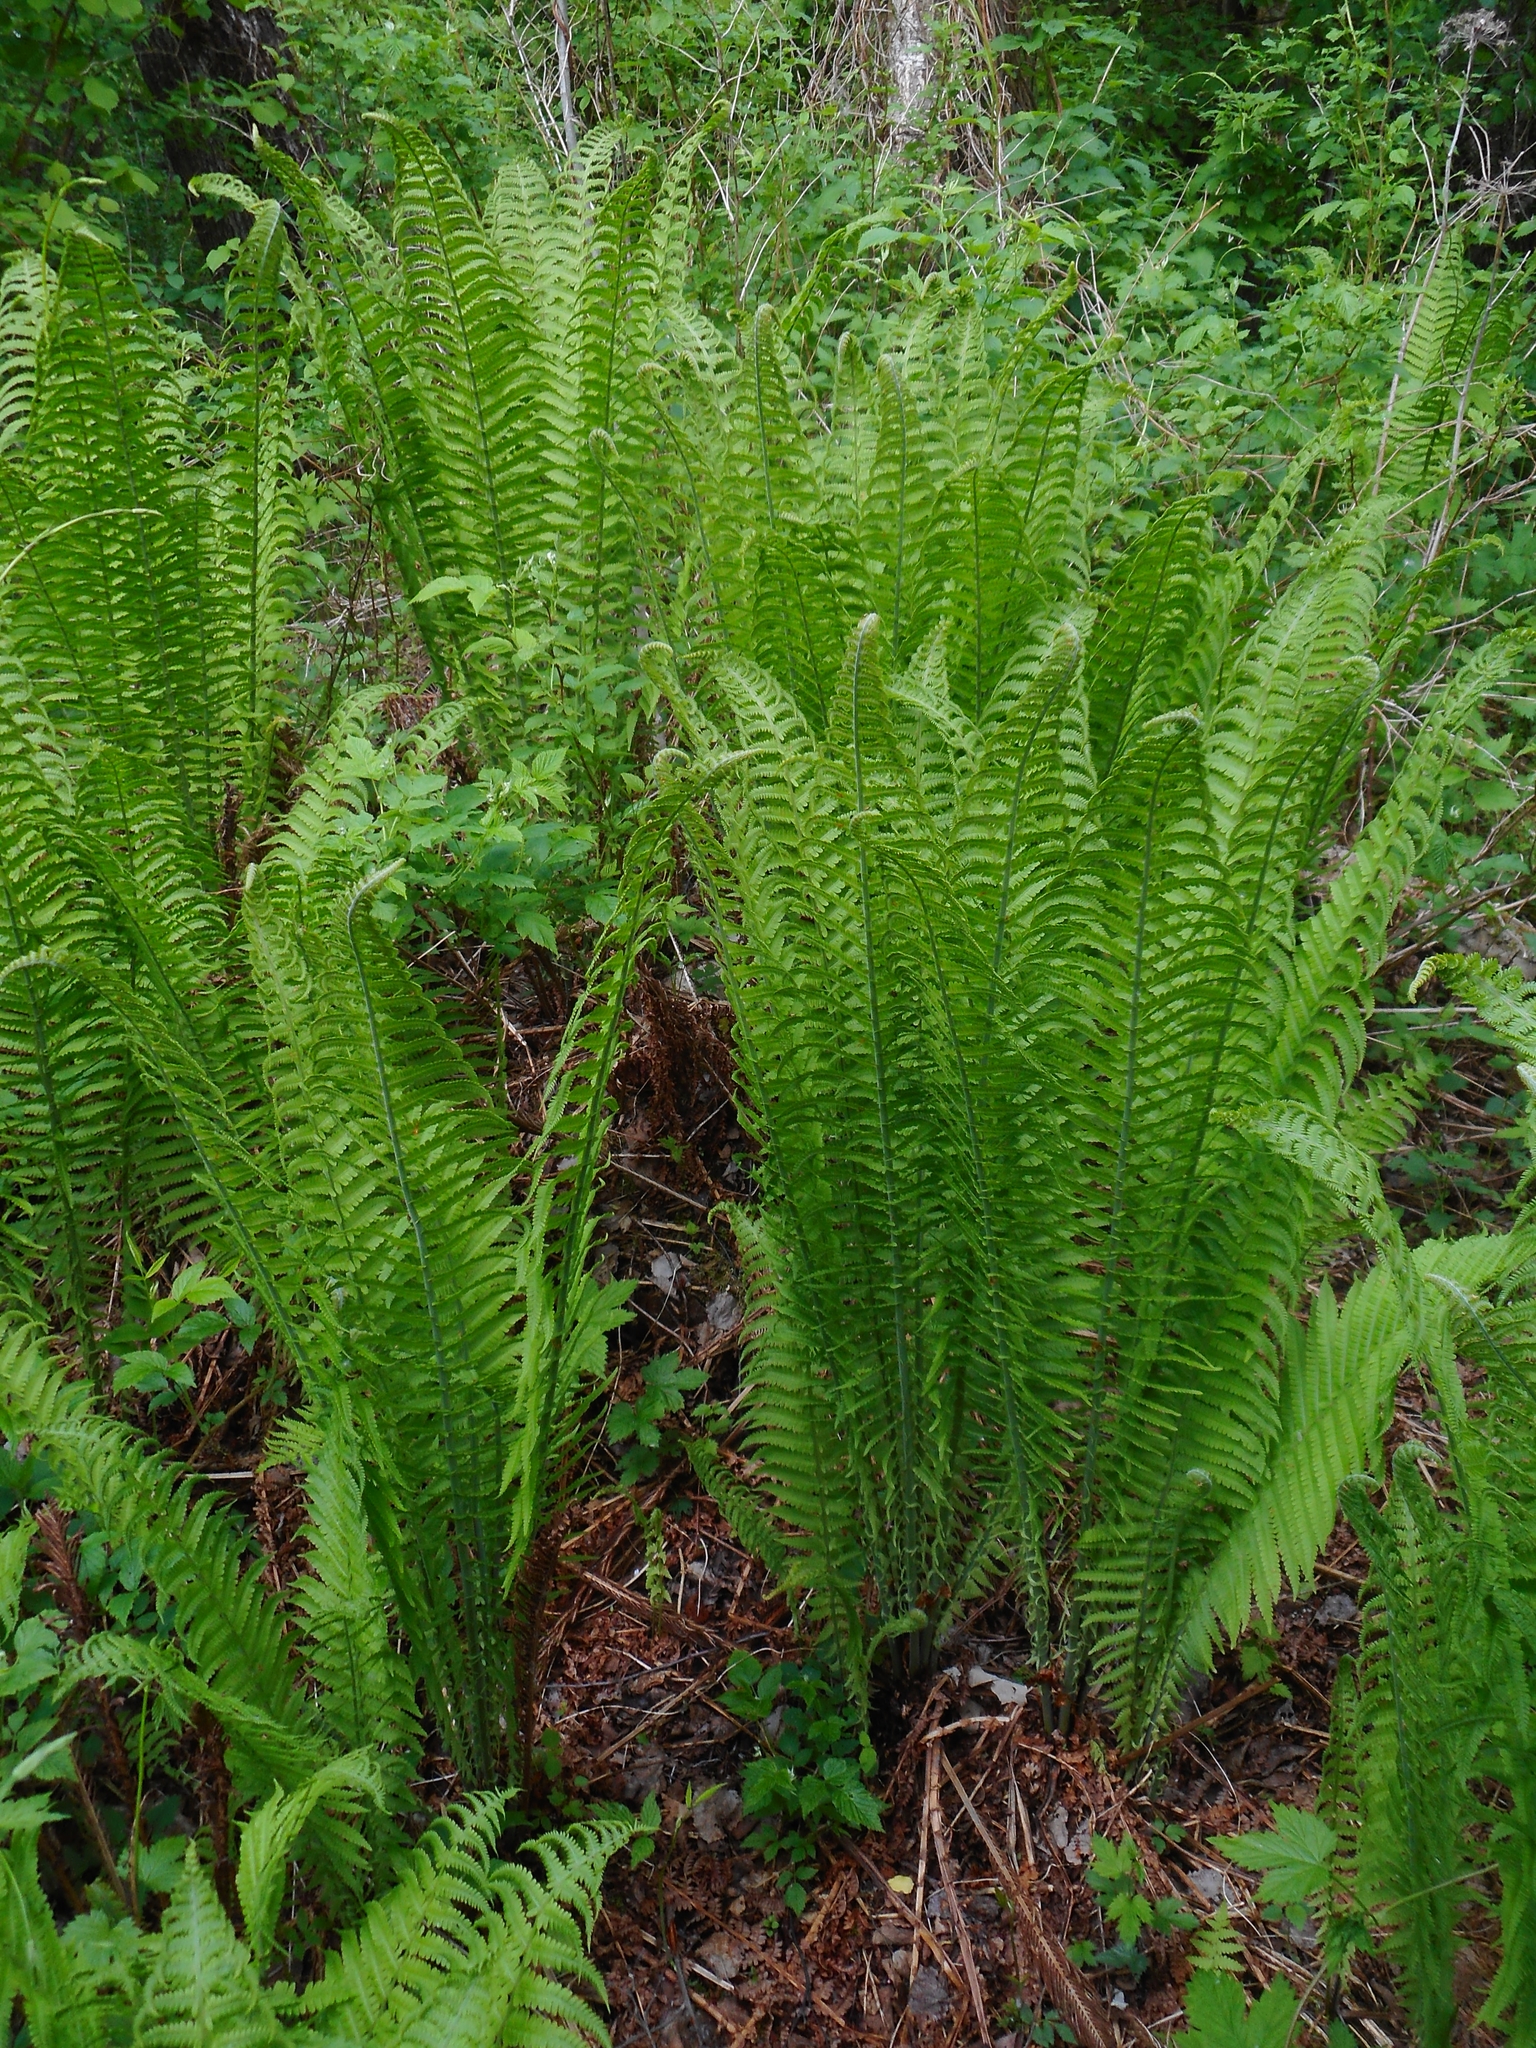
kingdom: Plantae
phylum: Tracheophyta
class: Polypodiopsida
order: Polypodiales
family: Onocleaceae
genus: Matteuccia
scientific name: Matteuccia struthiopteris
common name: Ostrich fern
